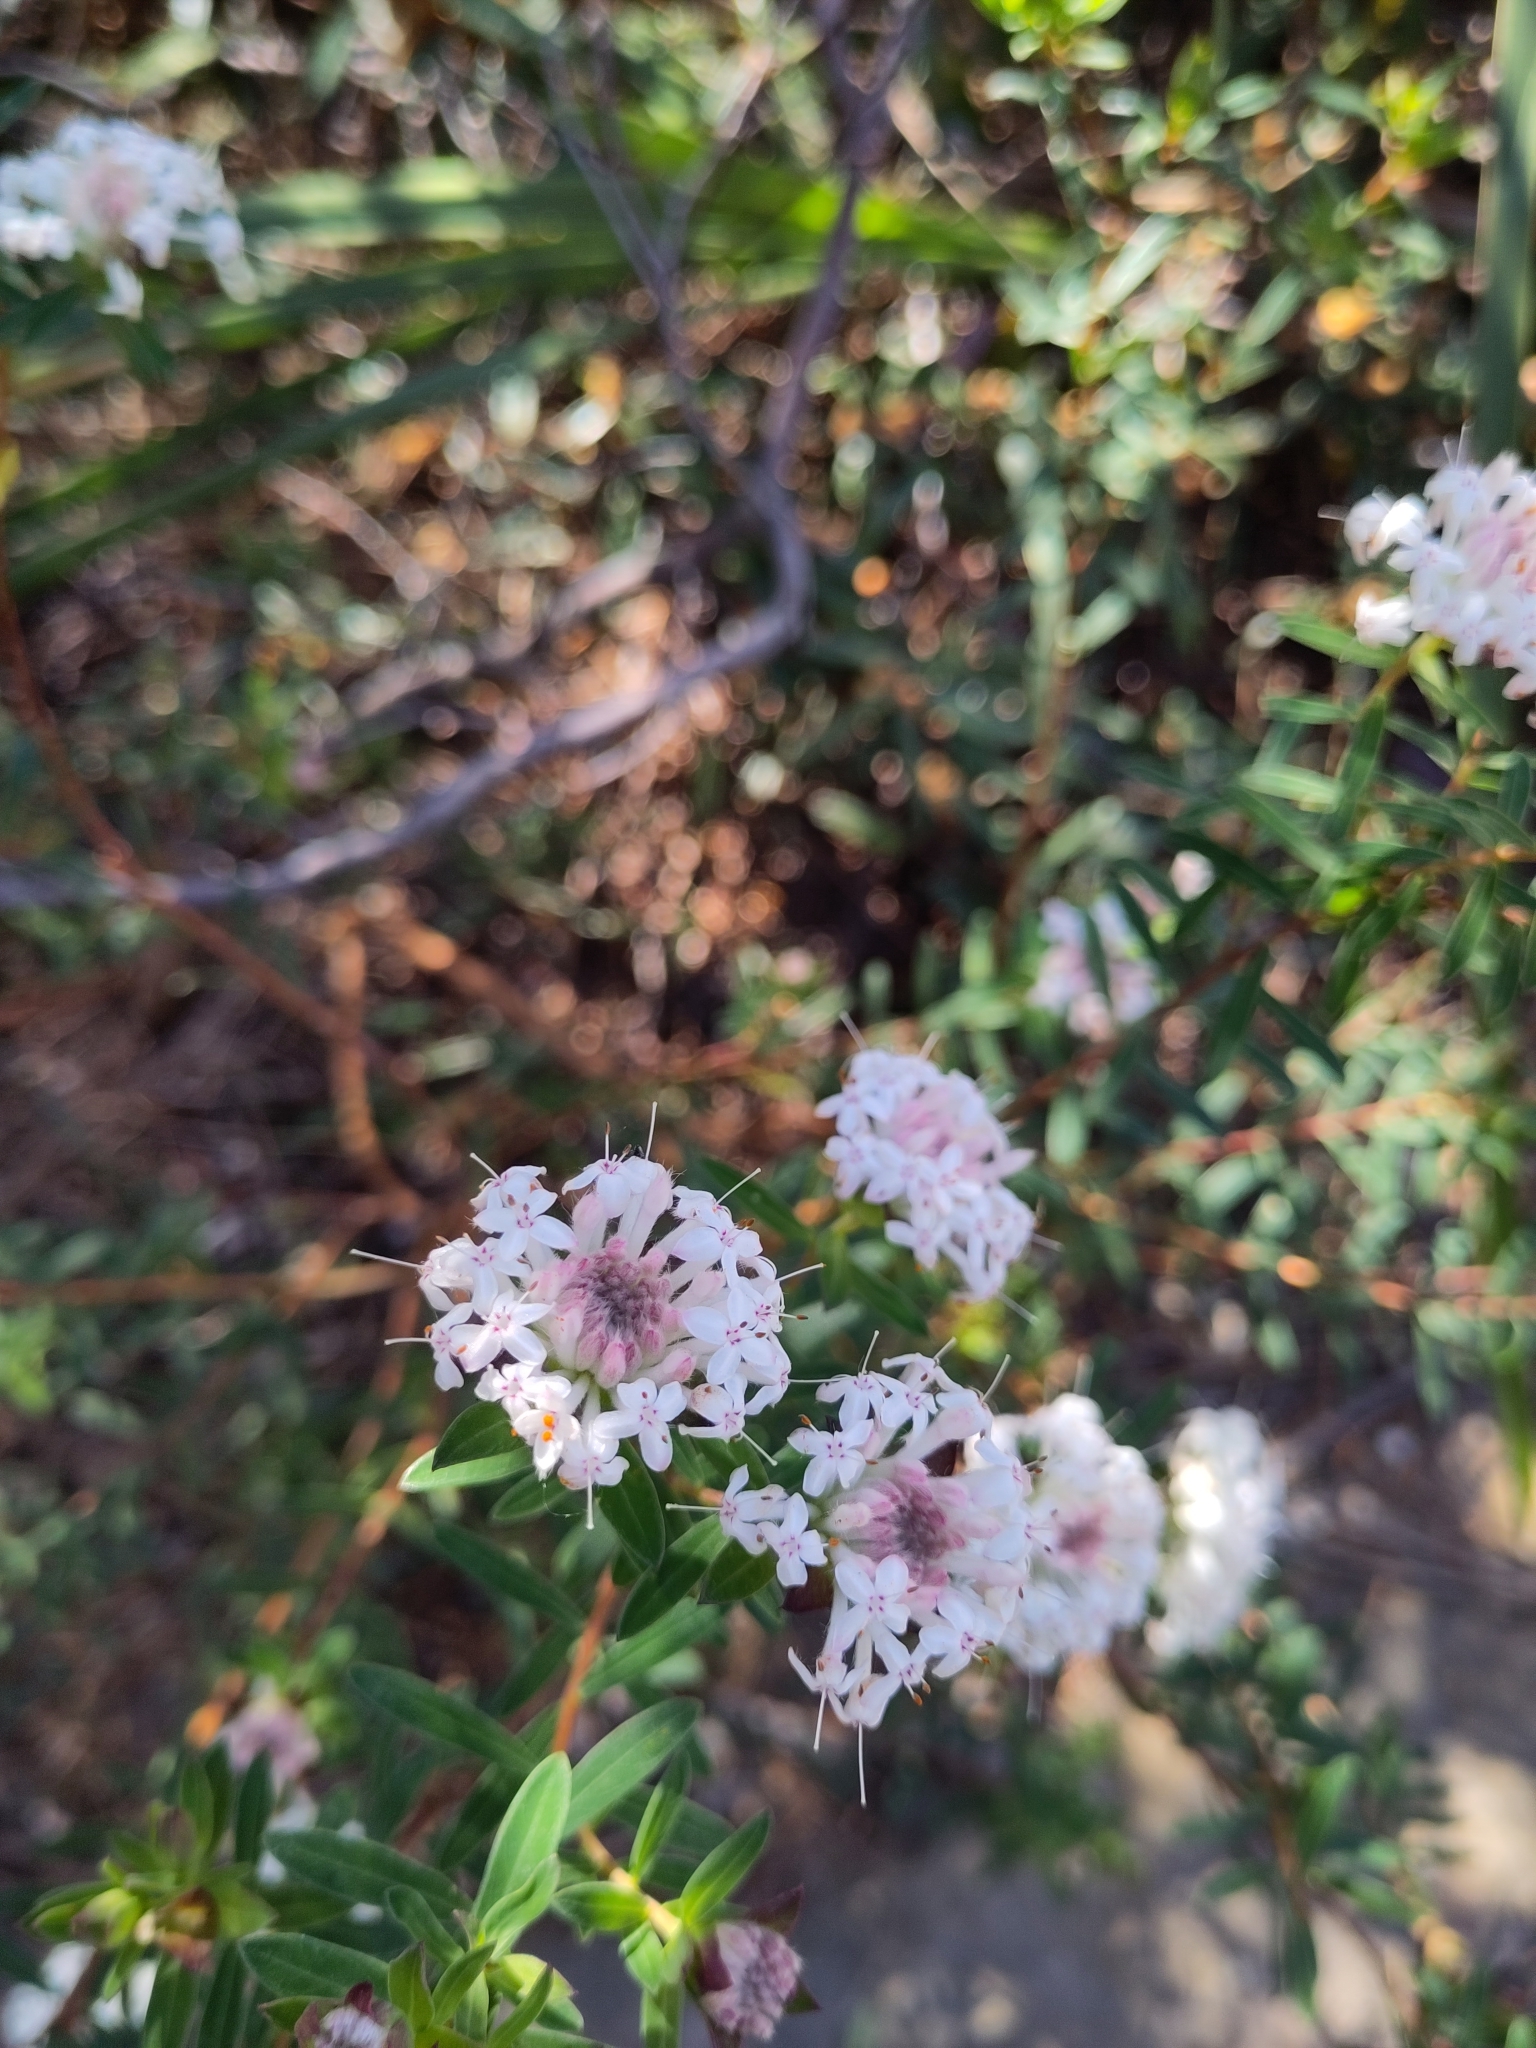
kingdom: Plantae
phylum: Tracheophyta
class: Magnoliopsida
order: Malvales
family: Thymelaeaceae
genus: Pimelea
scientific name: Pimelea linifolia
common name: Queen-of-the-bush
